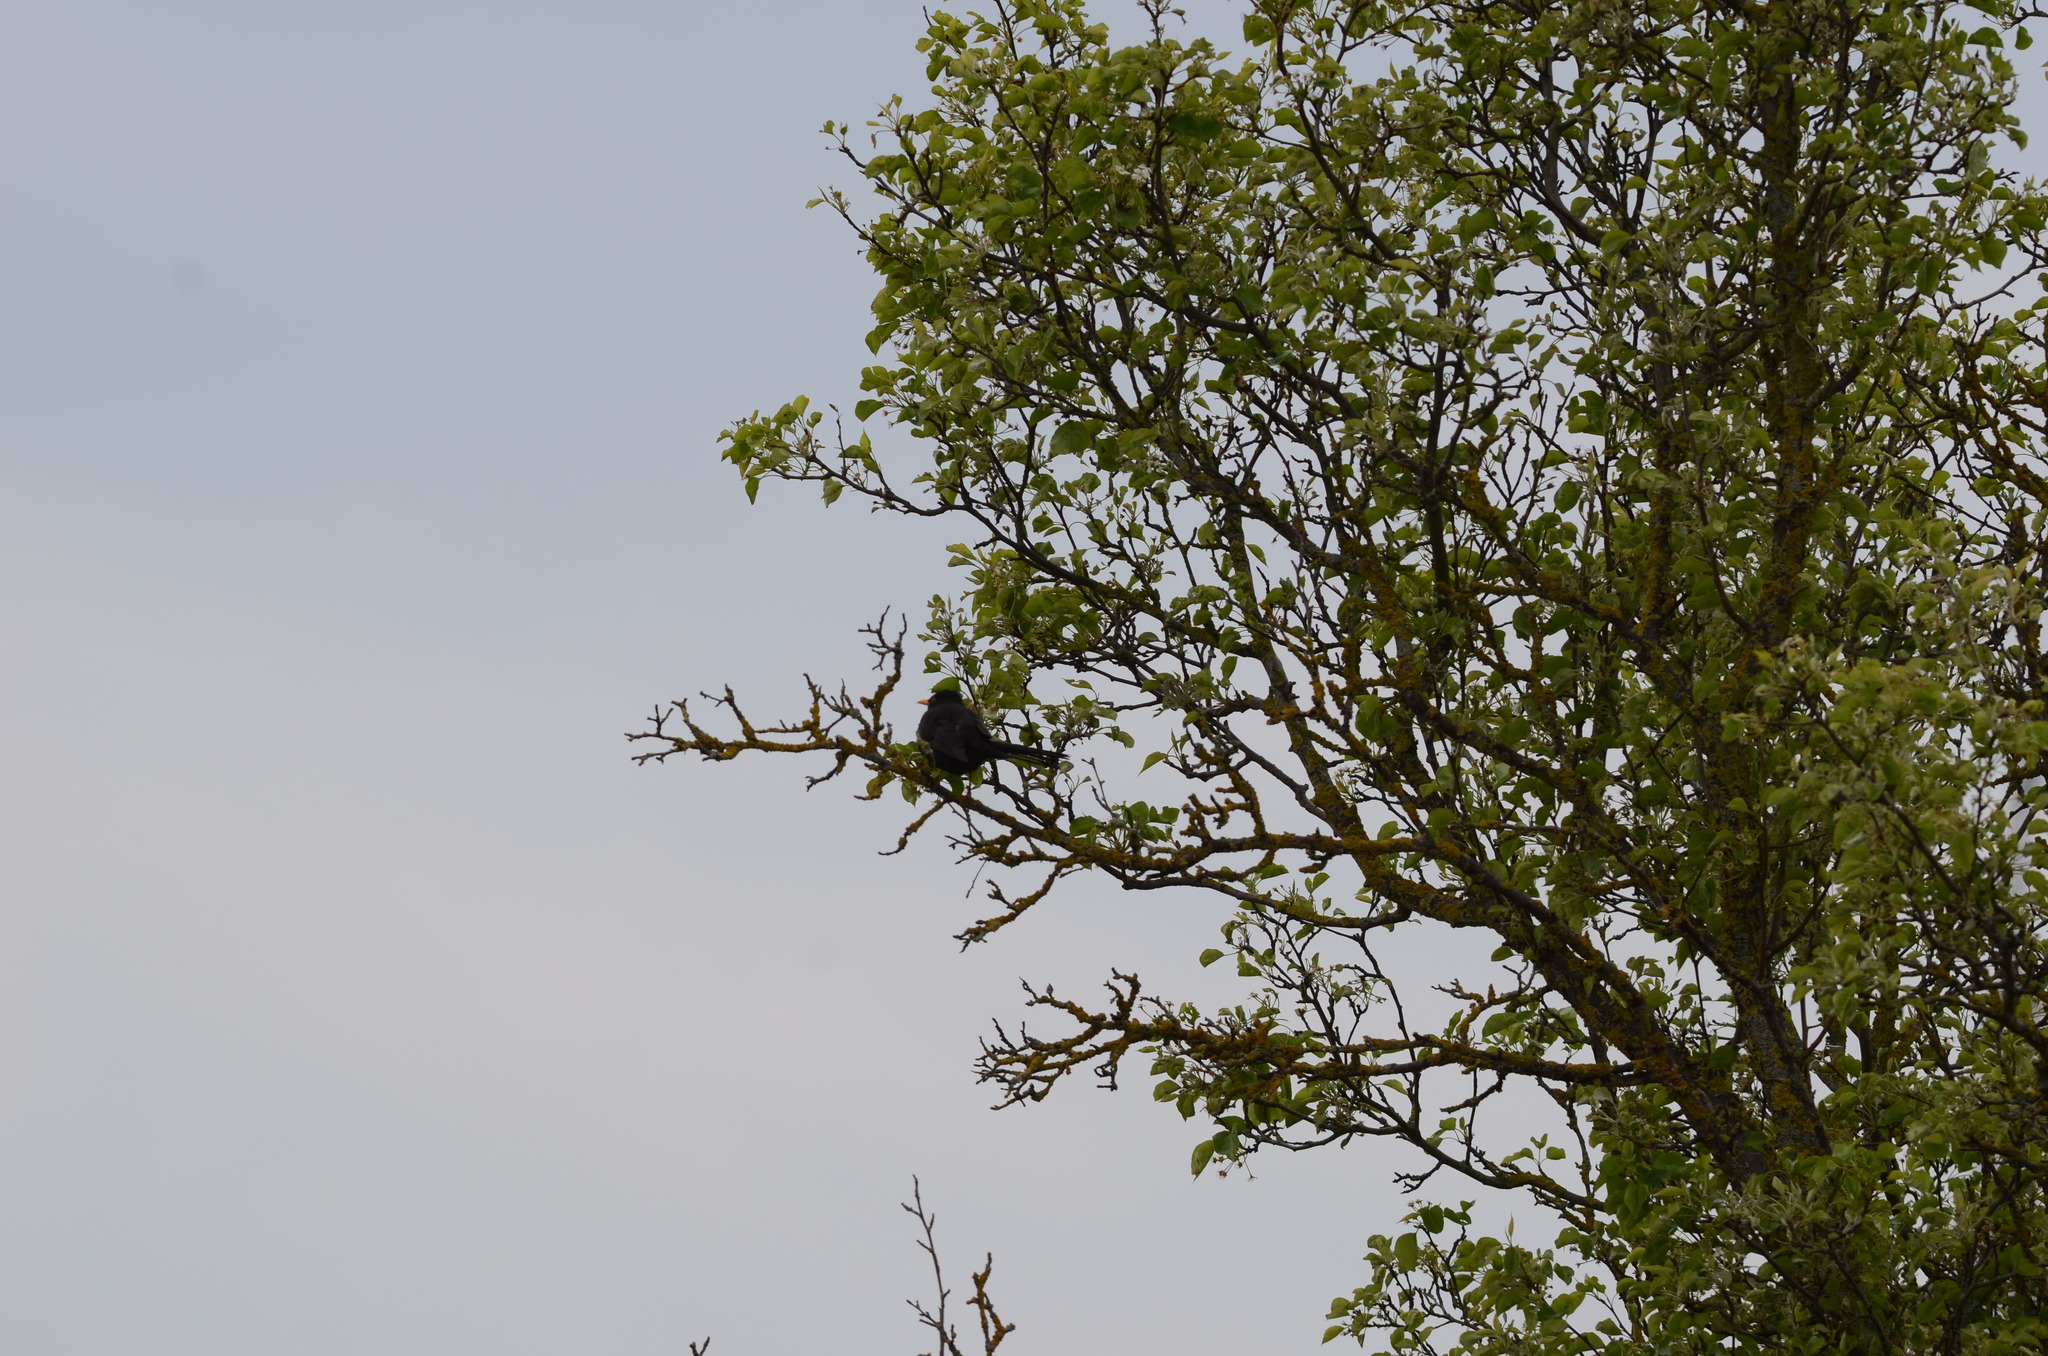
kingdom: Animalia
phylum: Chordata
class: Aves
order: Passeriformes
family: Turdidae
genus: Turdus
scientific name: Turdus merula
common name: Common blackbird
